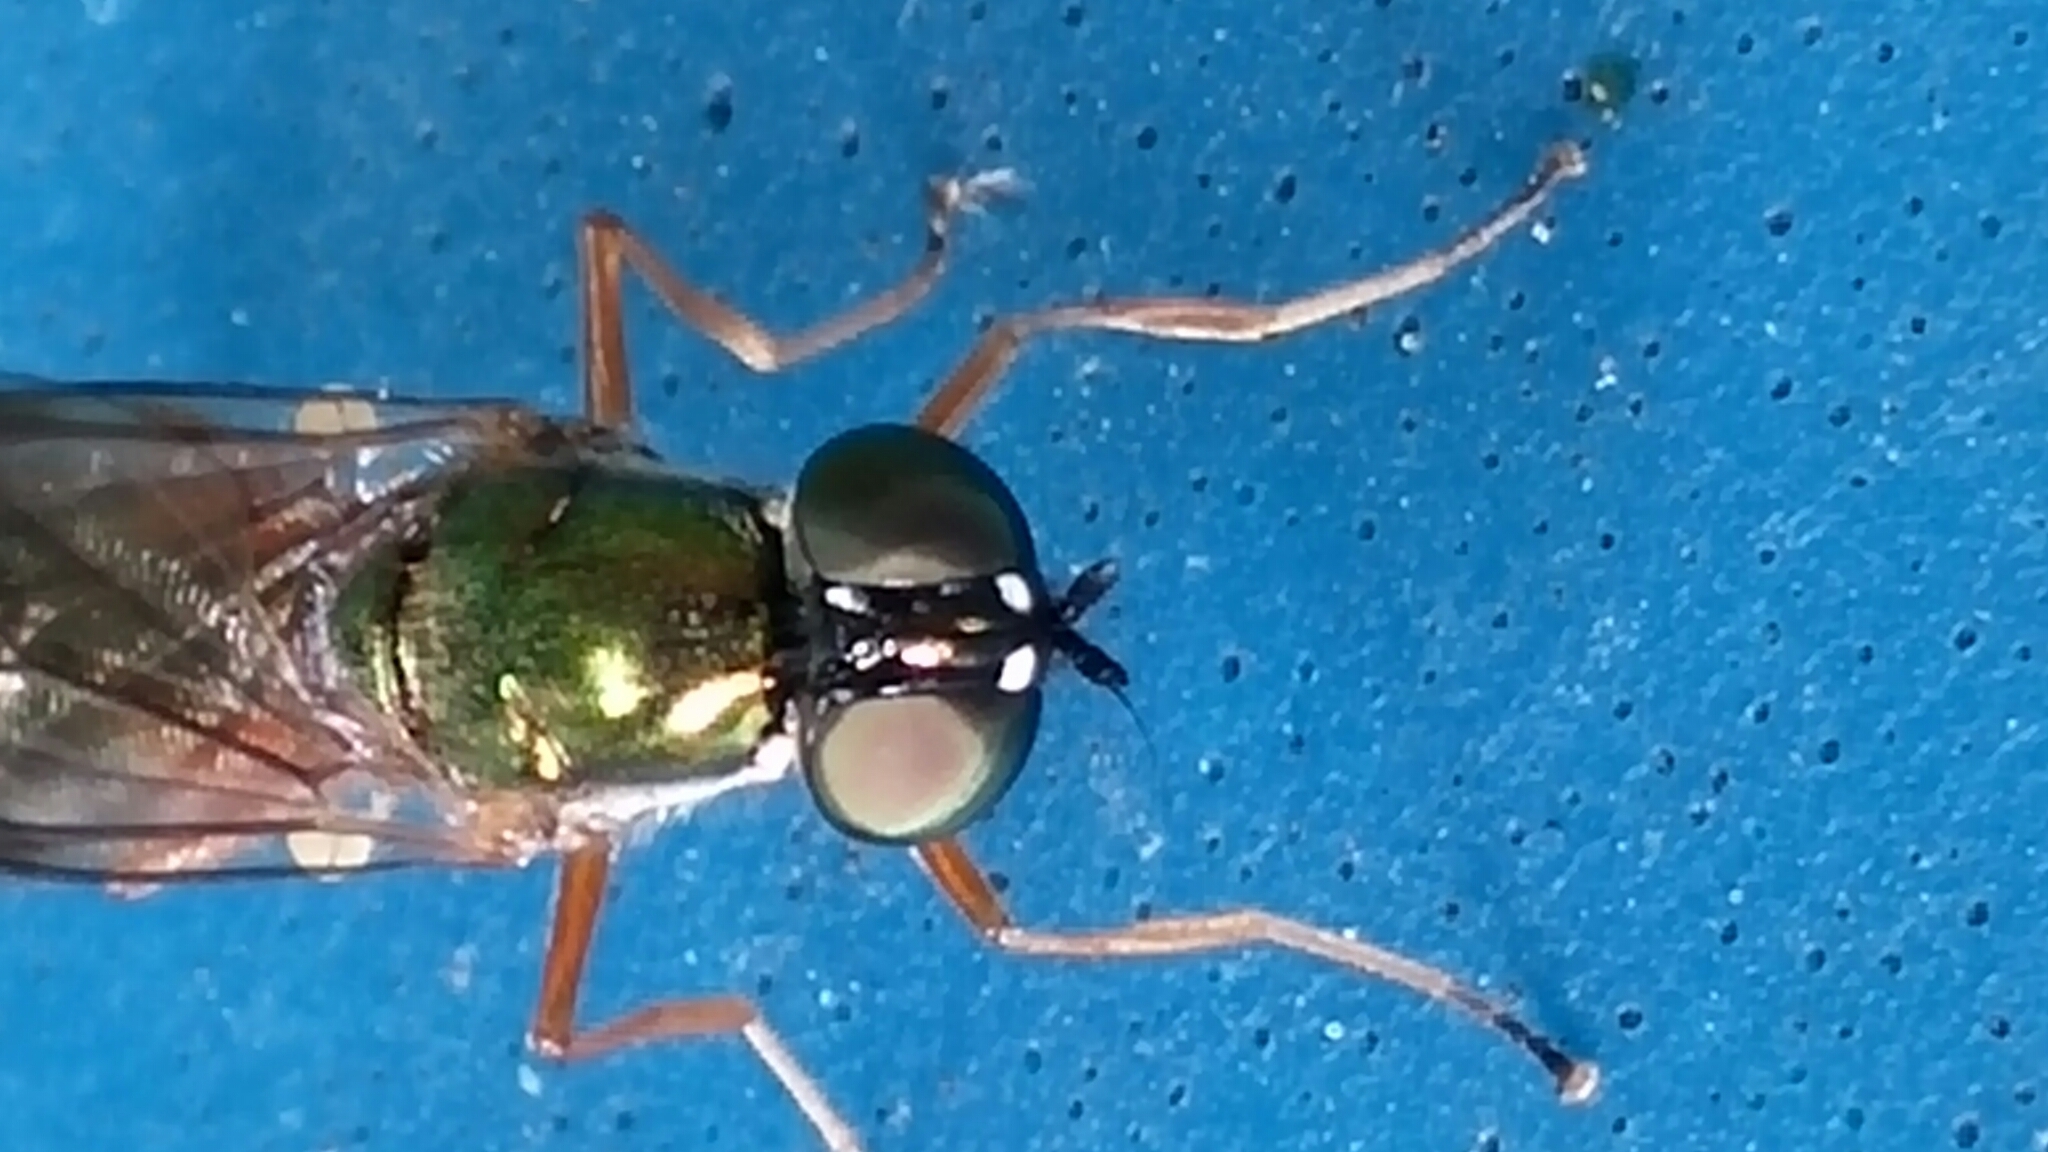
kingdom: Animalia
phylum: Arthropoda
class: Insecta
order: Diptera
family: Stratiomyidae
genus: Sargus
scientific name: Sargus bipunctatus
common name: Twin-spot centurion
